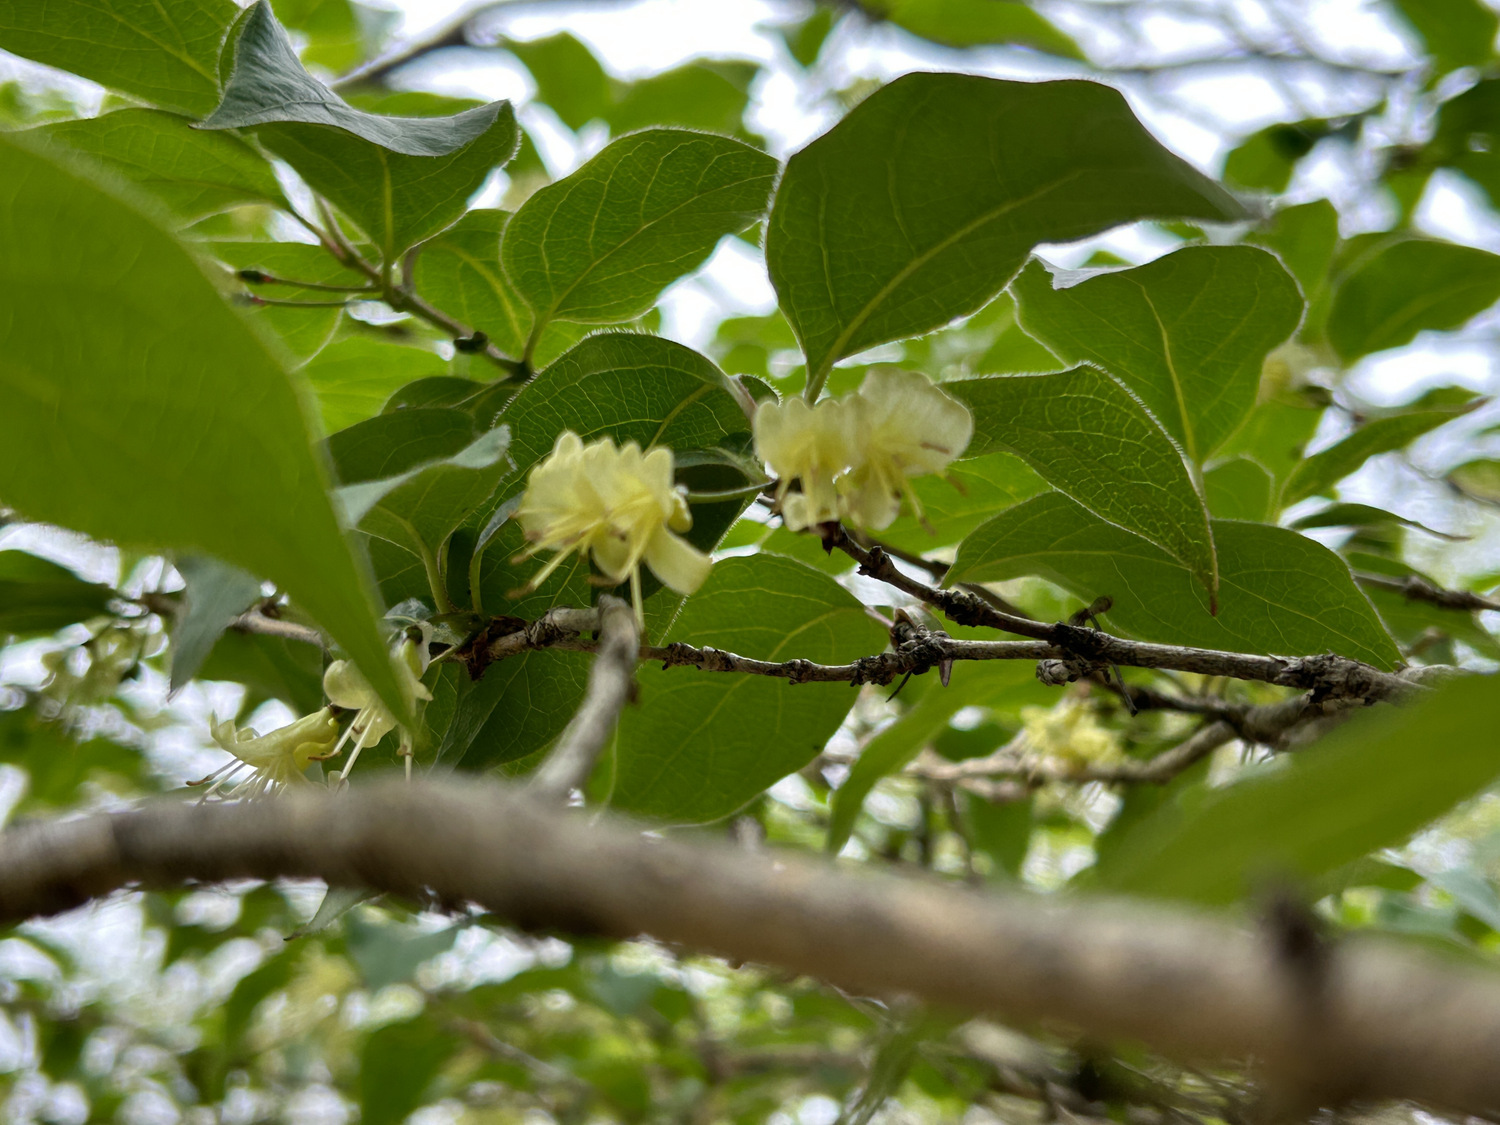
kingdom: Plantae
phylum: Tracheophyta
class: Magnoliopsida
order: Dipsacales
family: Caprifoliaceae
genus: Lonicera
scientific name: Lonicera chrysantha
